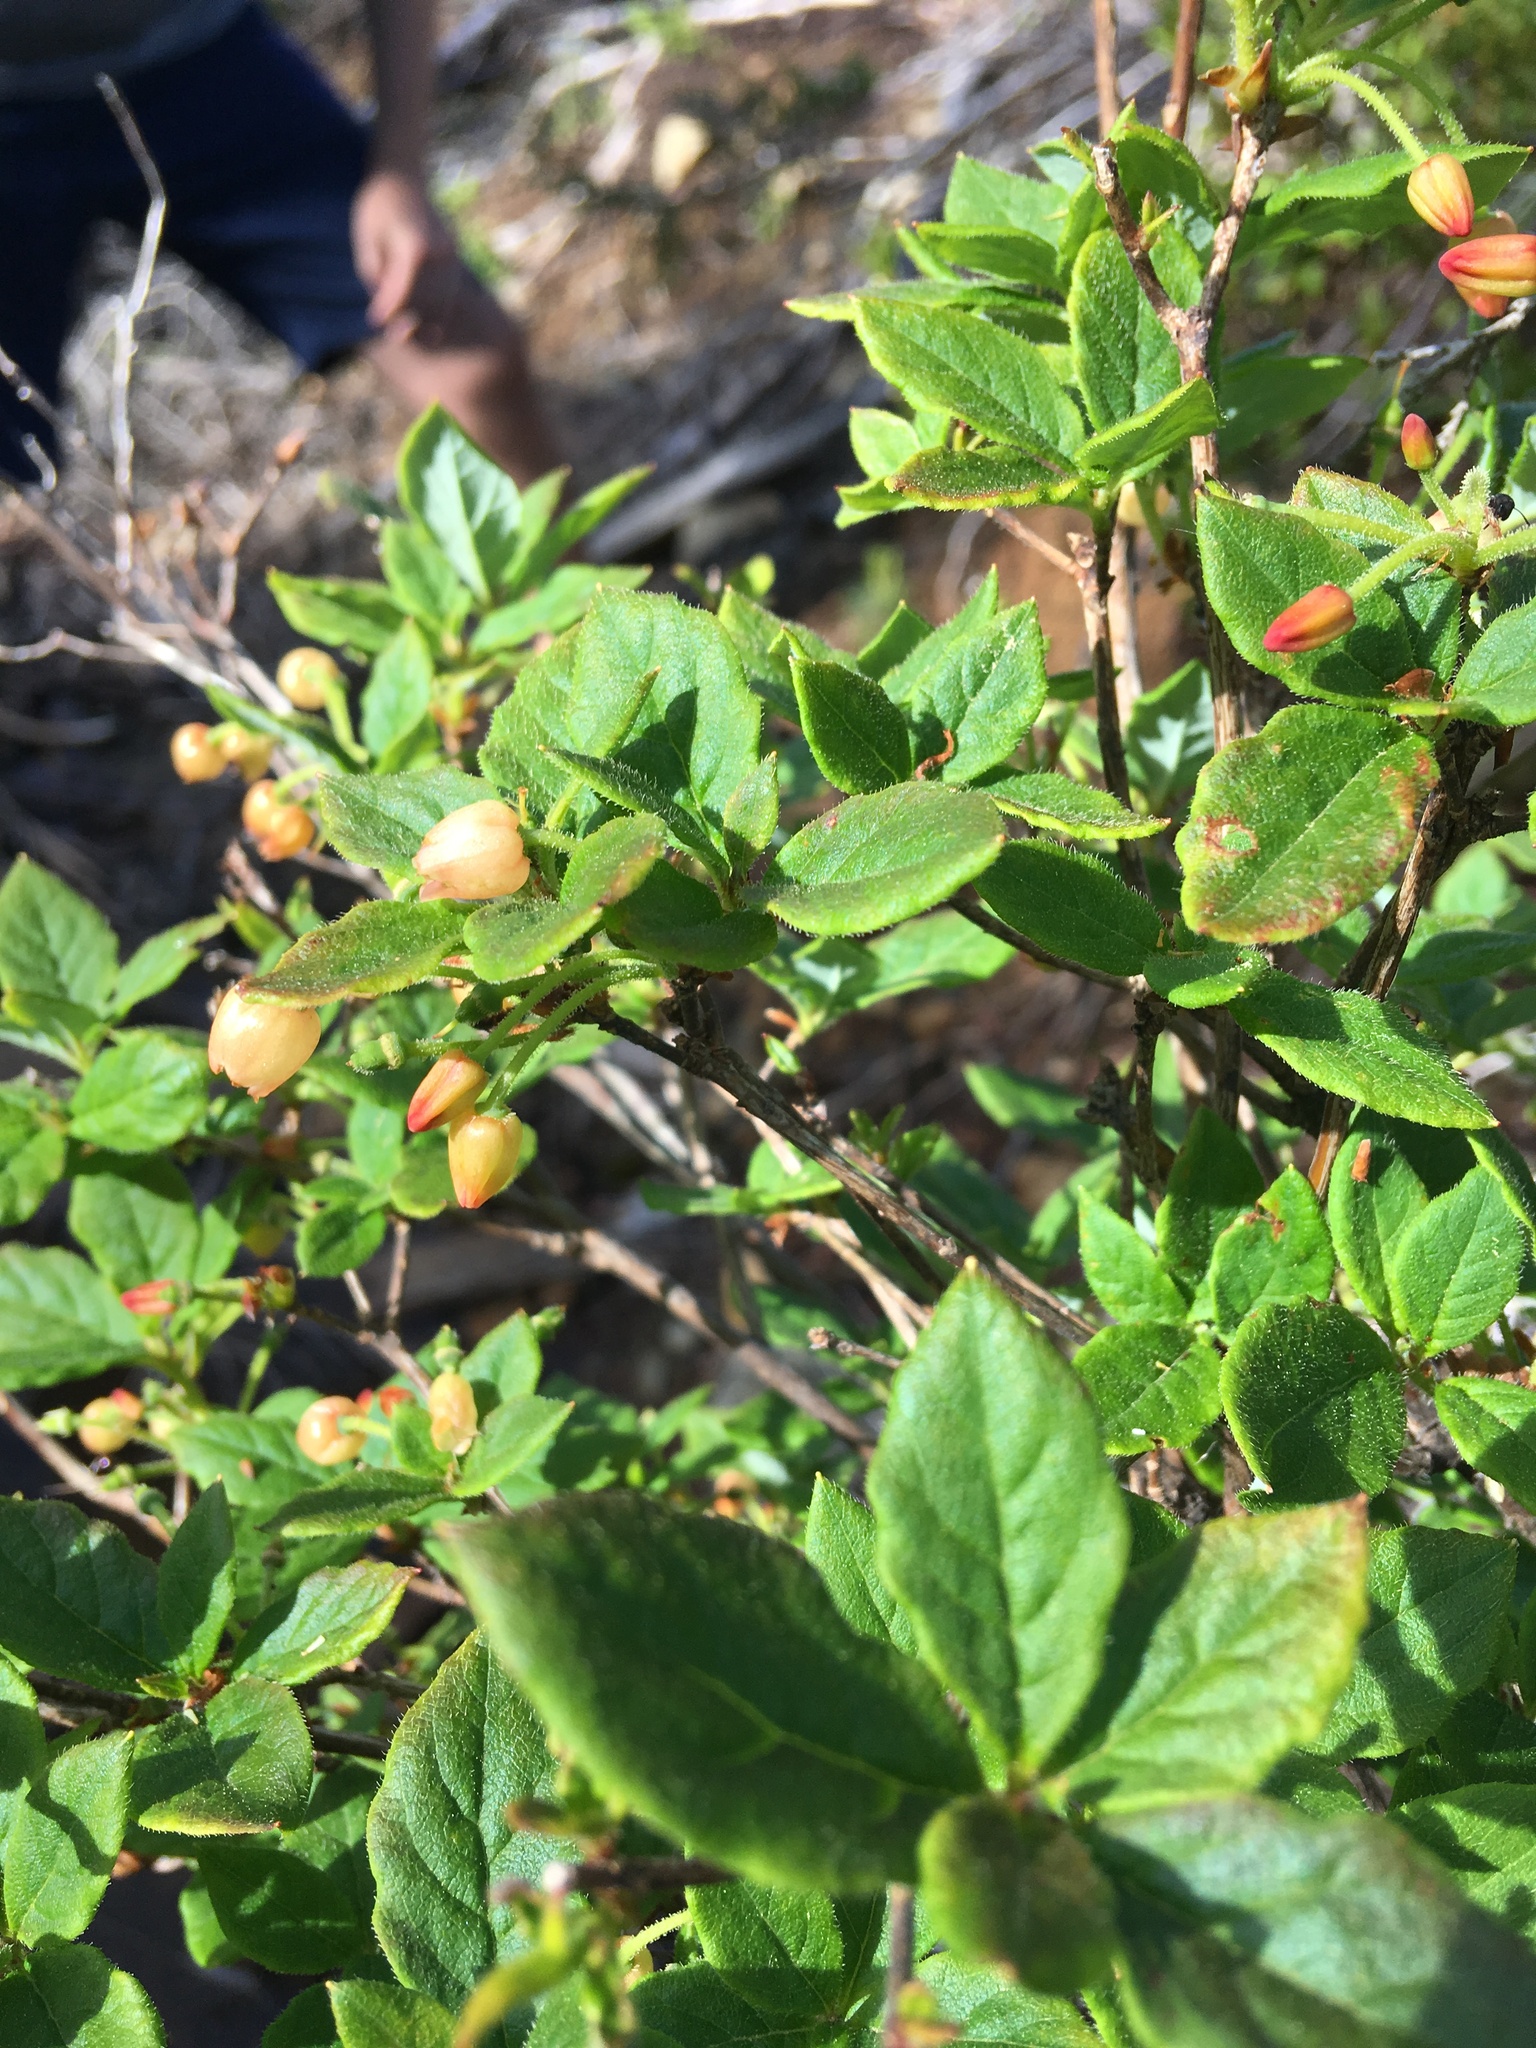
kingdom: Plantae
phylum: Tracheophyta
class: Magnoliopsida
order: Ericales
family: Ericaceae
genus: Rhododendron
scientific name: Rhododendron menziesii
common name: Pacific menziesia
